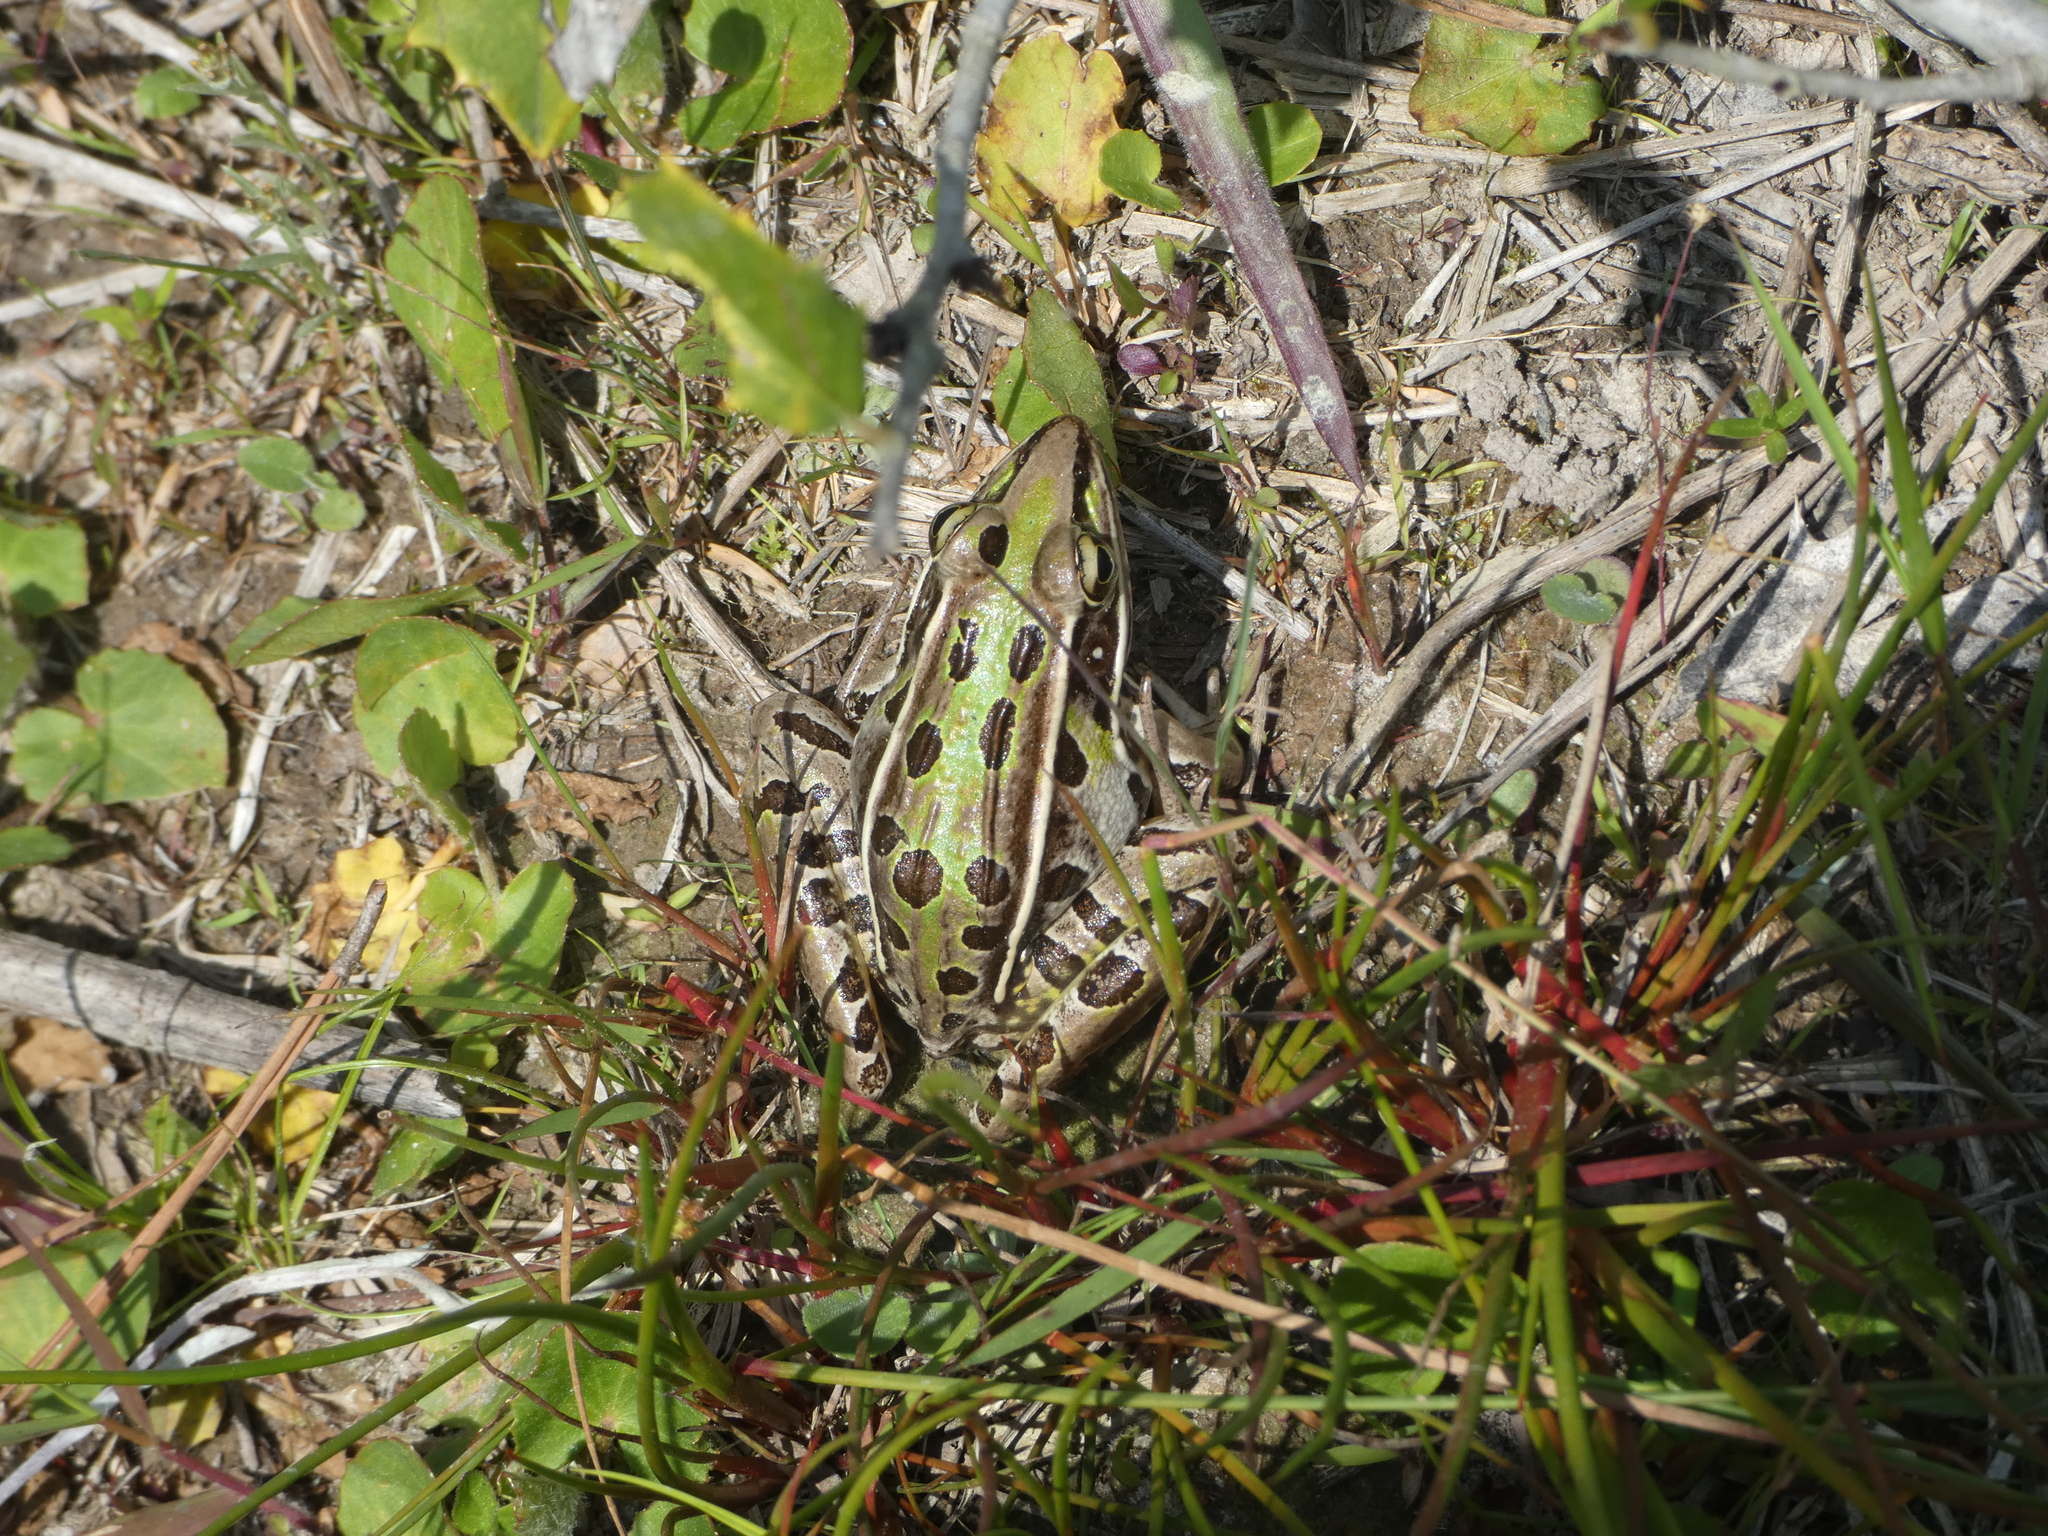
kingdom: Animalia
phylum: Chordata
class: Amphibia
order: Anura
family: Ranidae
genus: Lithobates
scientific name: Lithobates sphenocephalus
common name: Southern leopard frog
